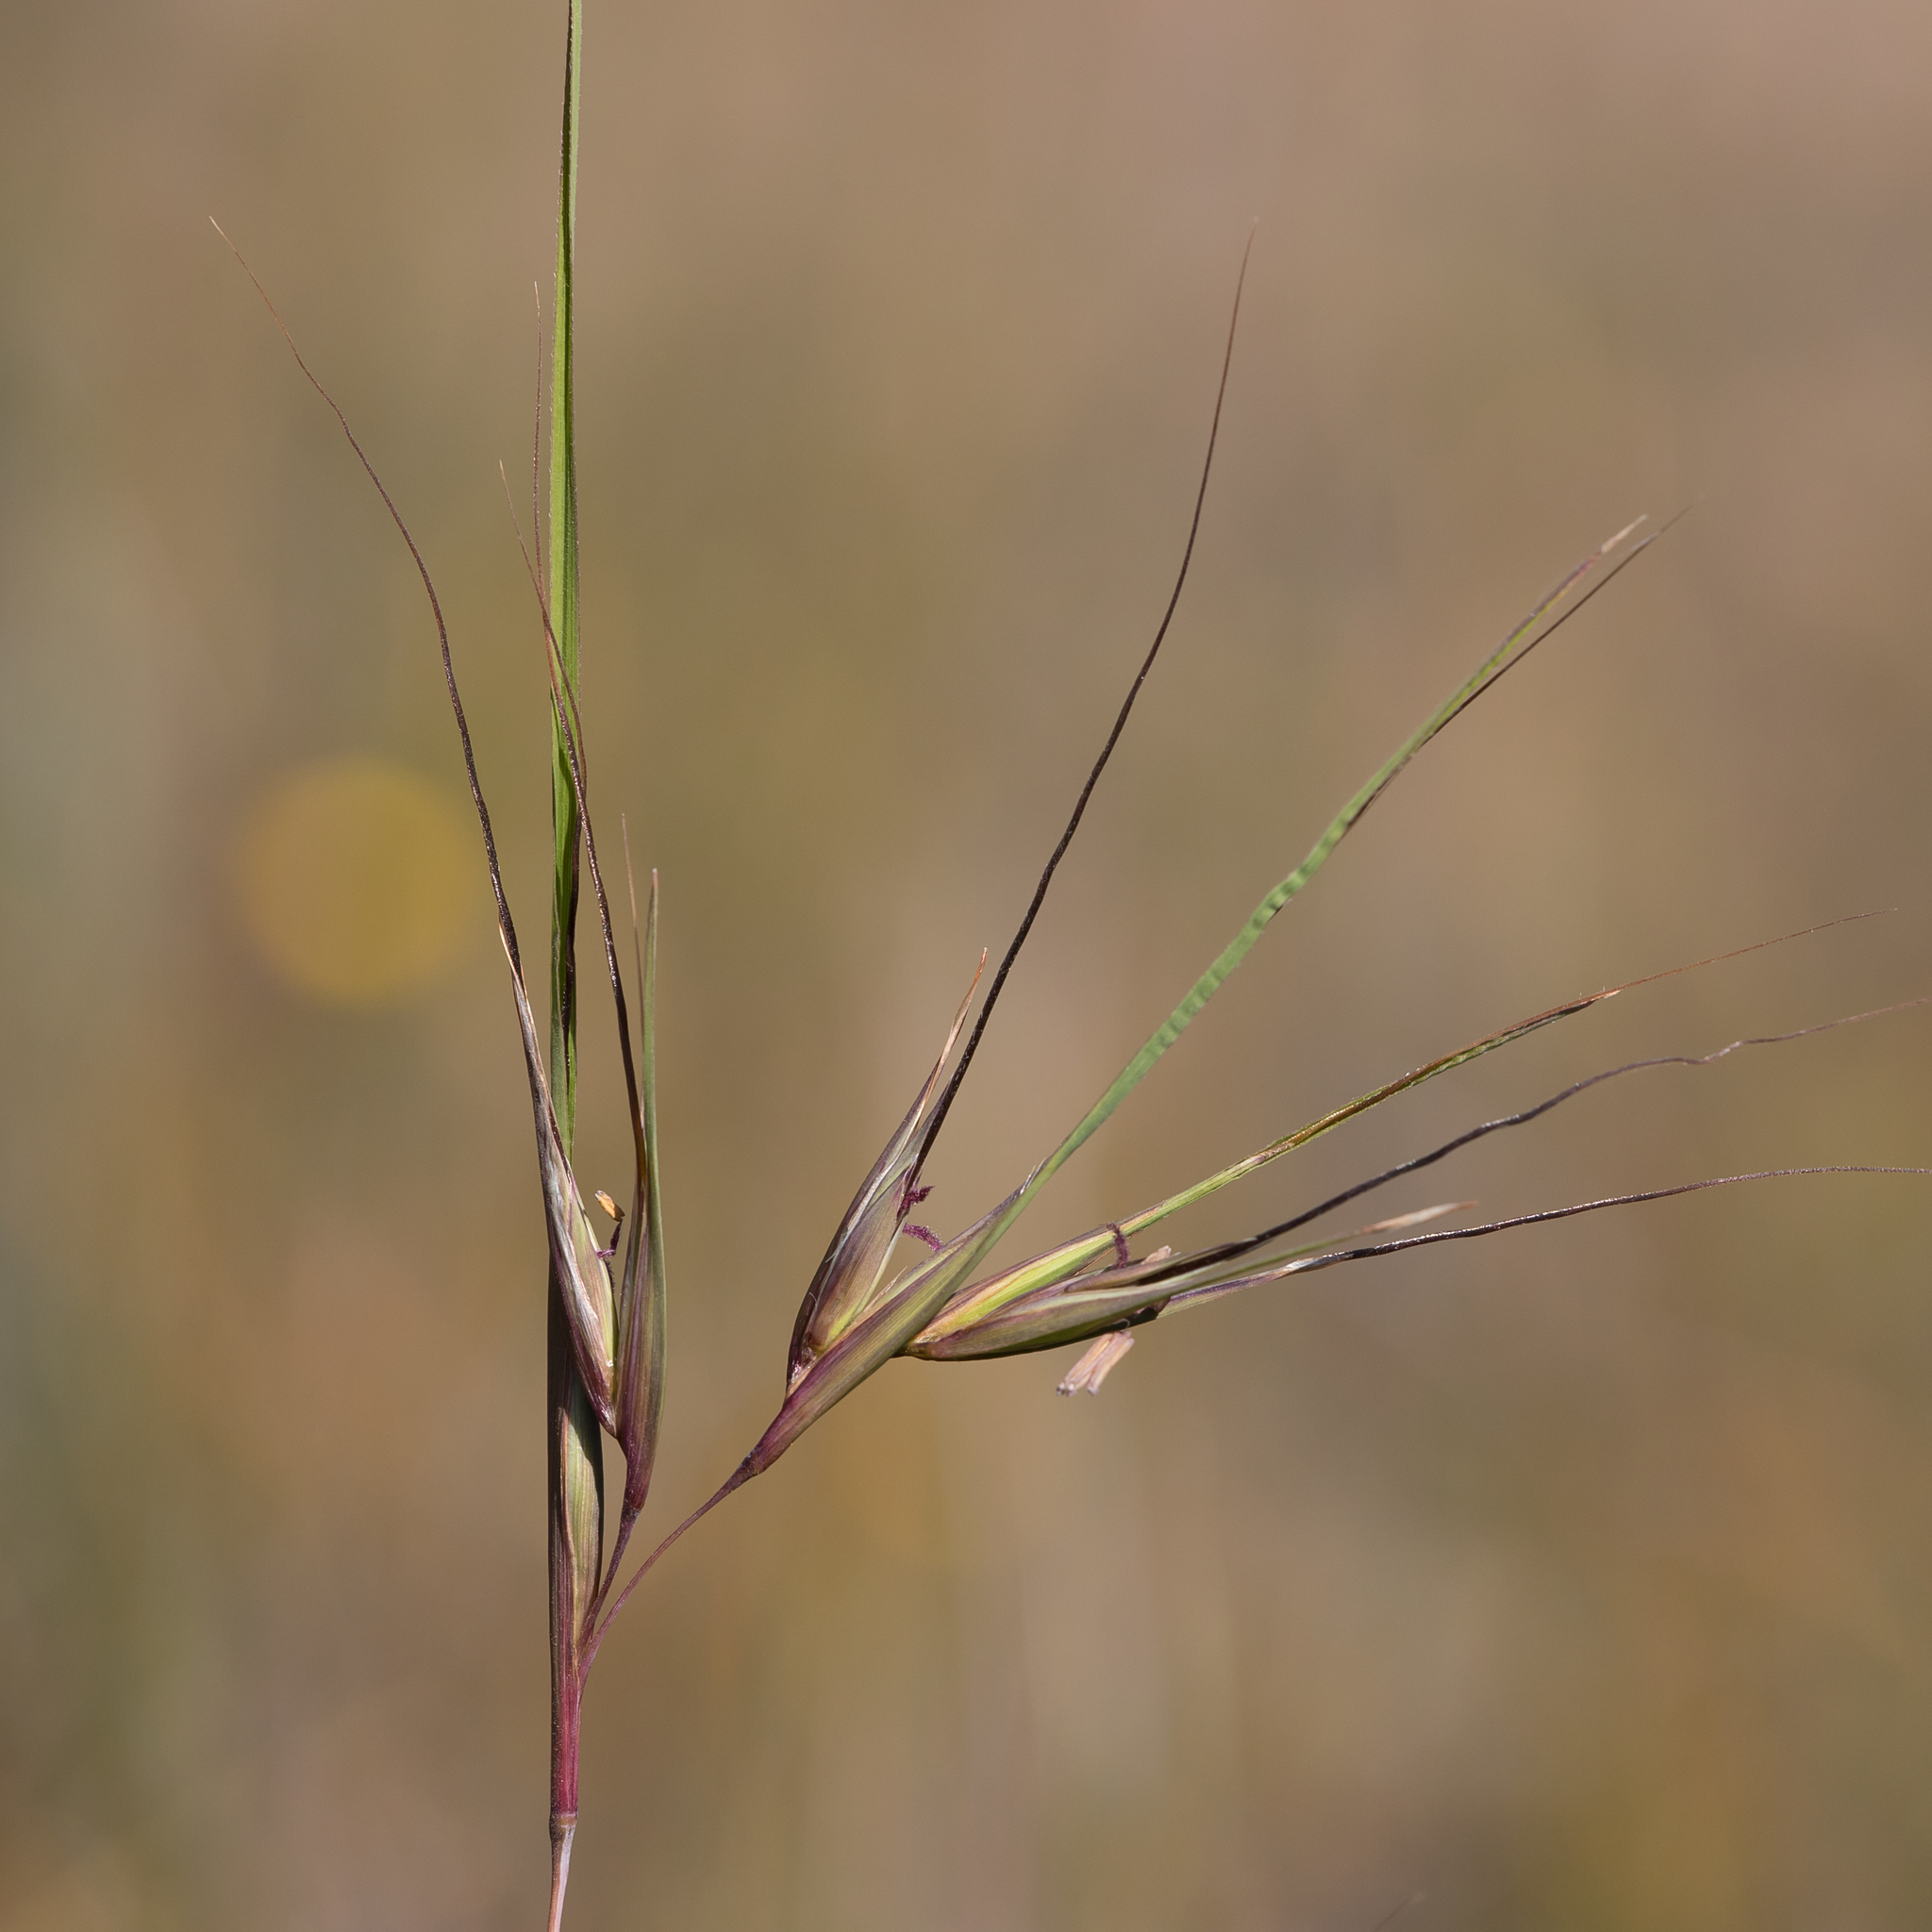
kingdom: Plantae
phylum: Tracheophyta
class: Liliopsida
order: Poales
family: Poaceae
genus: Themeda
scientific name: Themeda triandra
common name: Kangaroo grass
